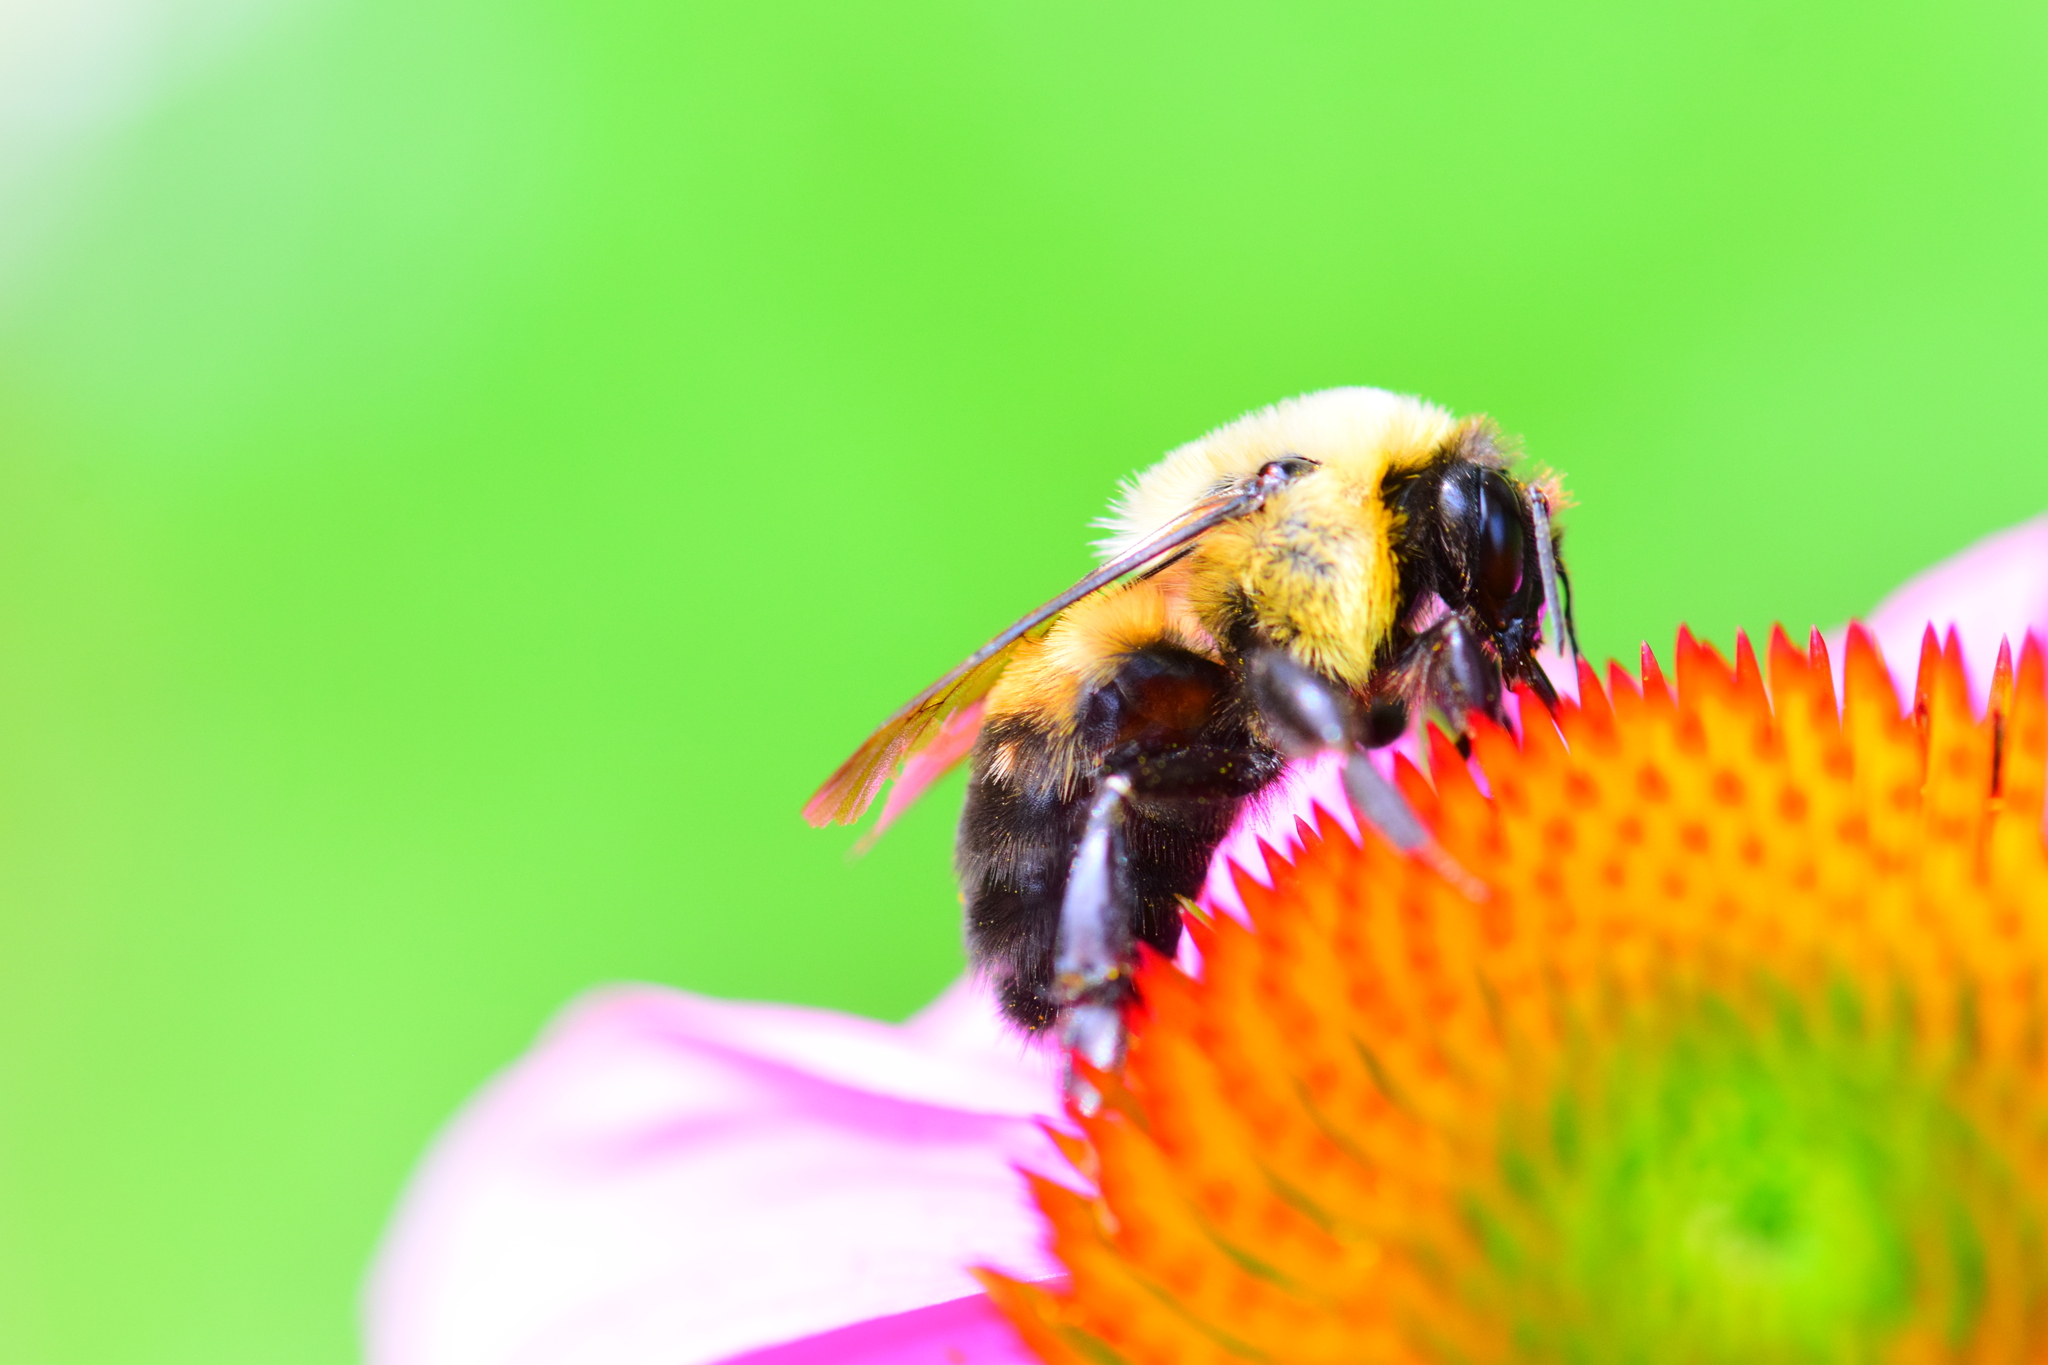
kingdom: Animalia
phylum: Arthropoda
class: Insecta
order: Hymenoptera
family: Apidae
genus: Bombus
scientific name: Bombus griseocollis
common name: Brown-belted bumble bee
